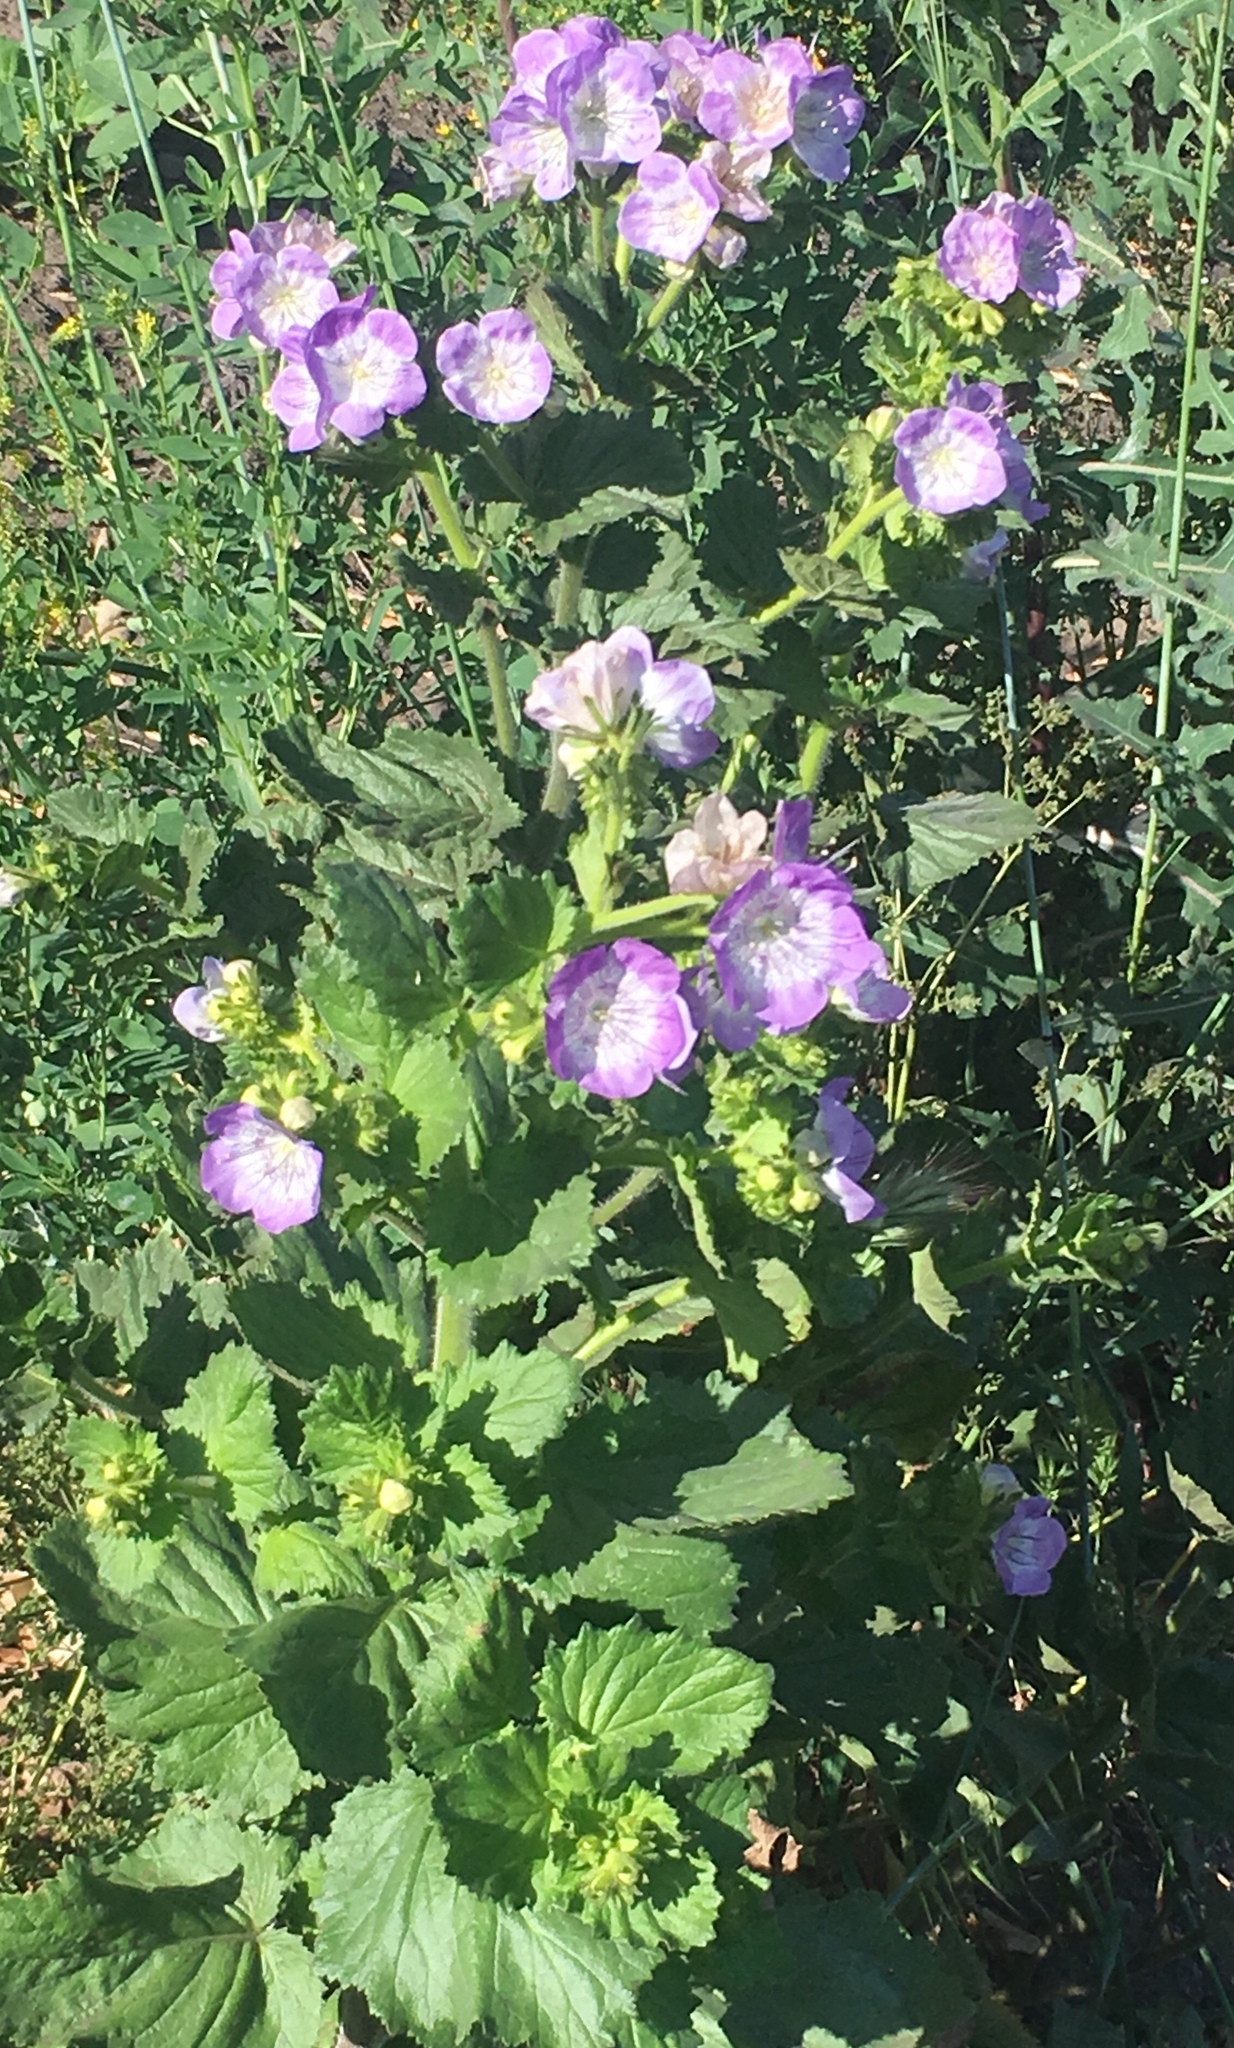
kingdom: Plantae
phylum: Tracheophyta
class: Magnoliopsida
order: Boraginales
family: Hydrophyllaceae
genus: Phacelia
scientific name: Phacelia grandiflora
